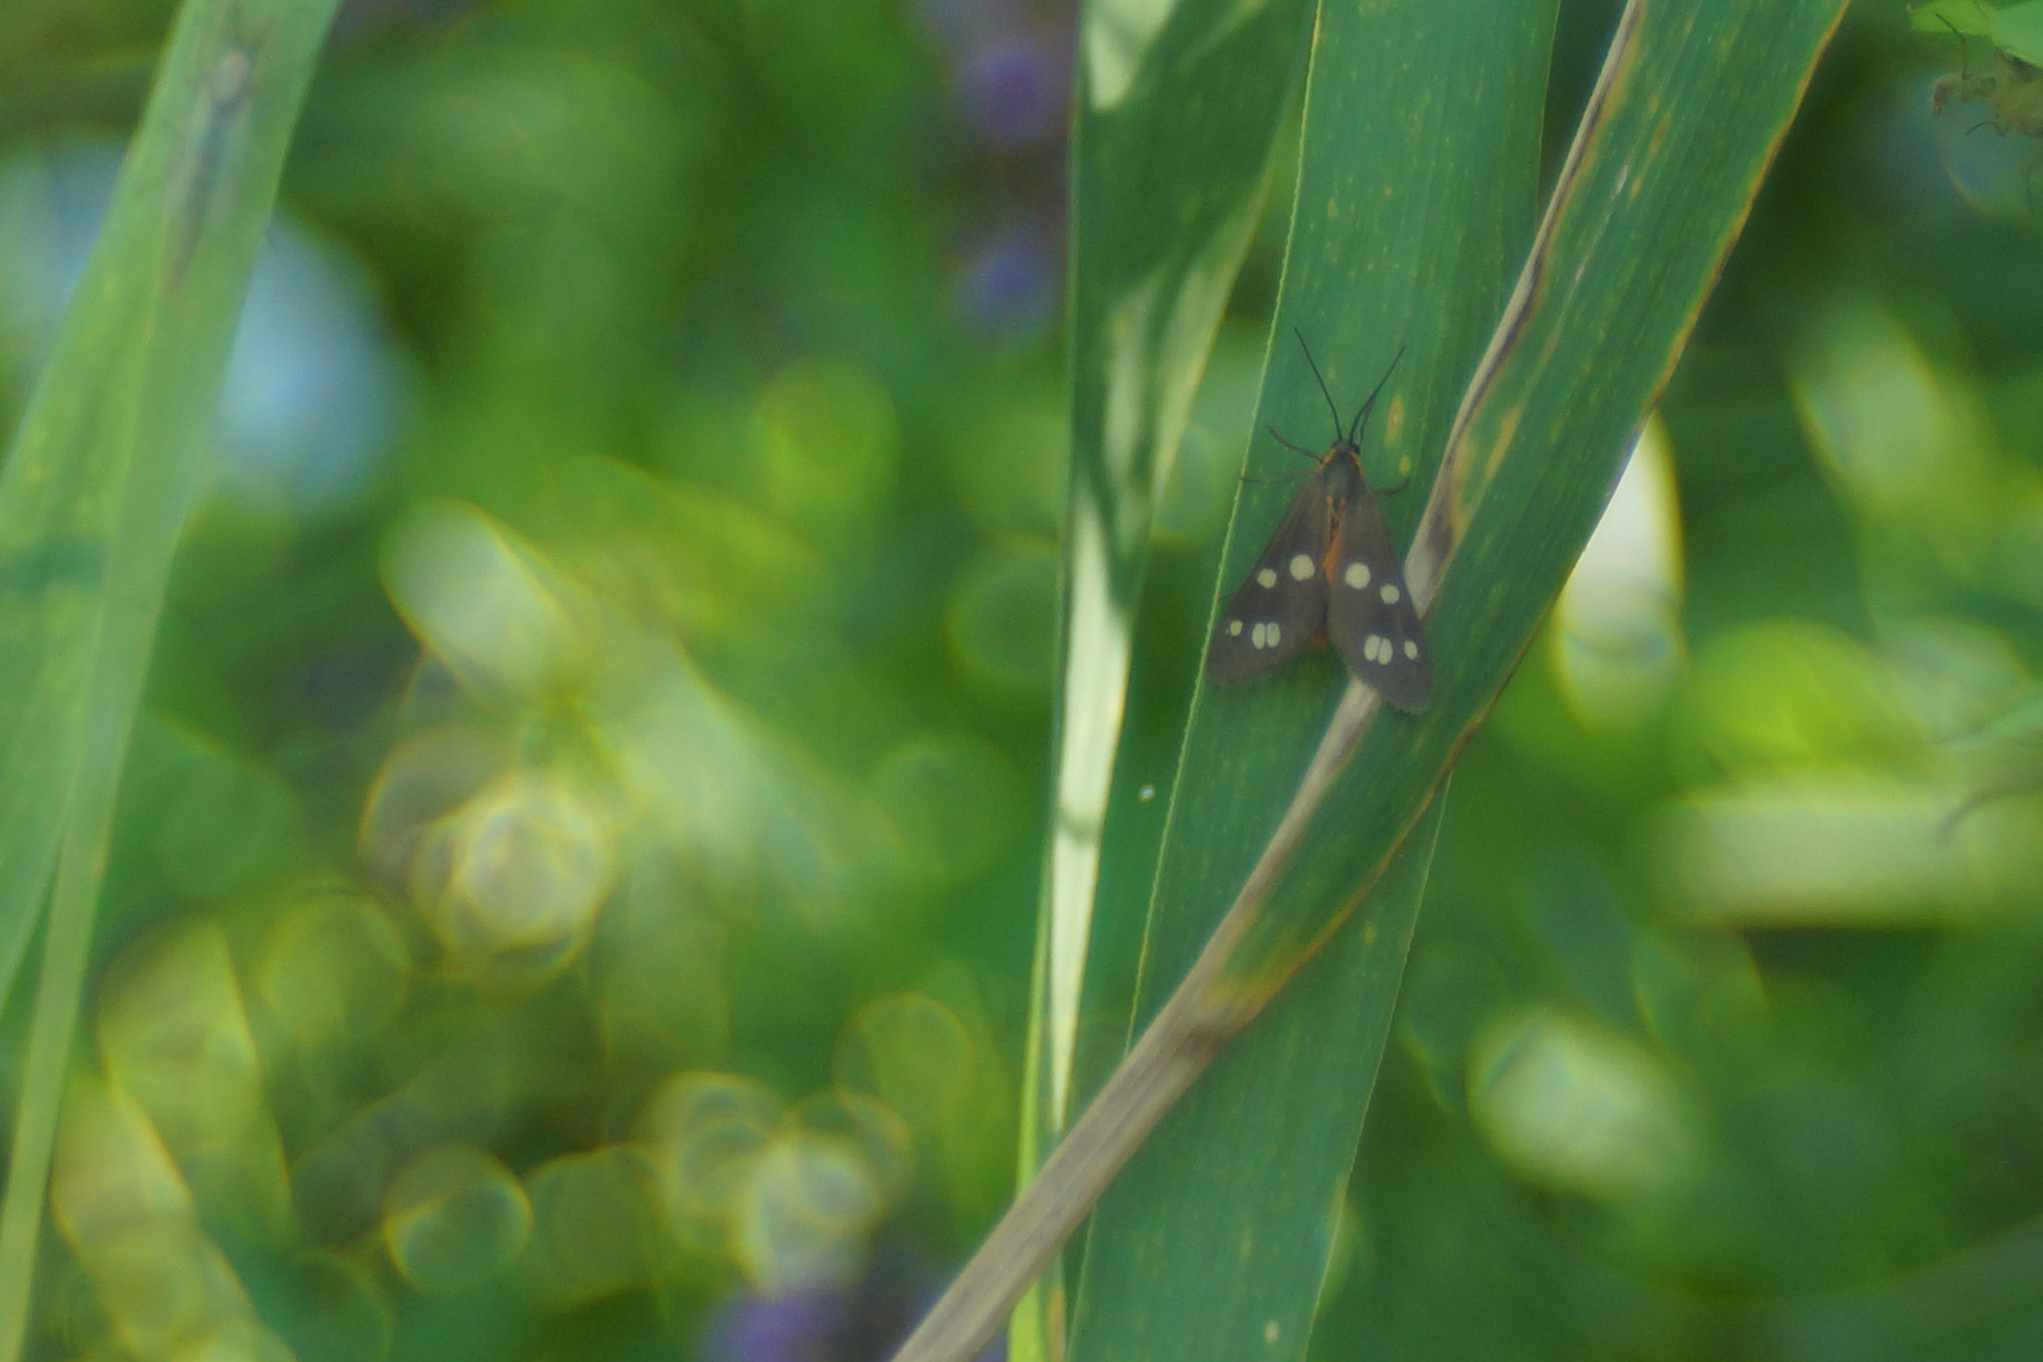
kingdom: Animalia
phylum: Arthropoda
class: Insecta
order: Lepidoptera
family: Erebidae
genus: Dysauxes
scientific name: Dysauxes punctata
